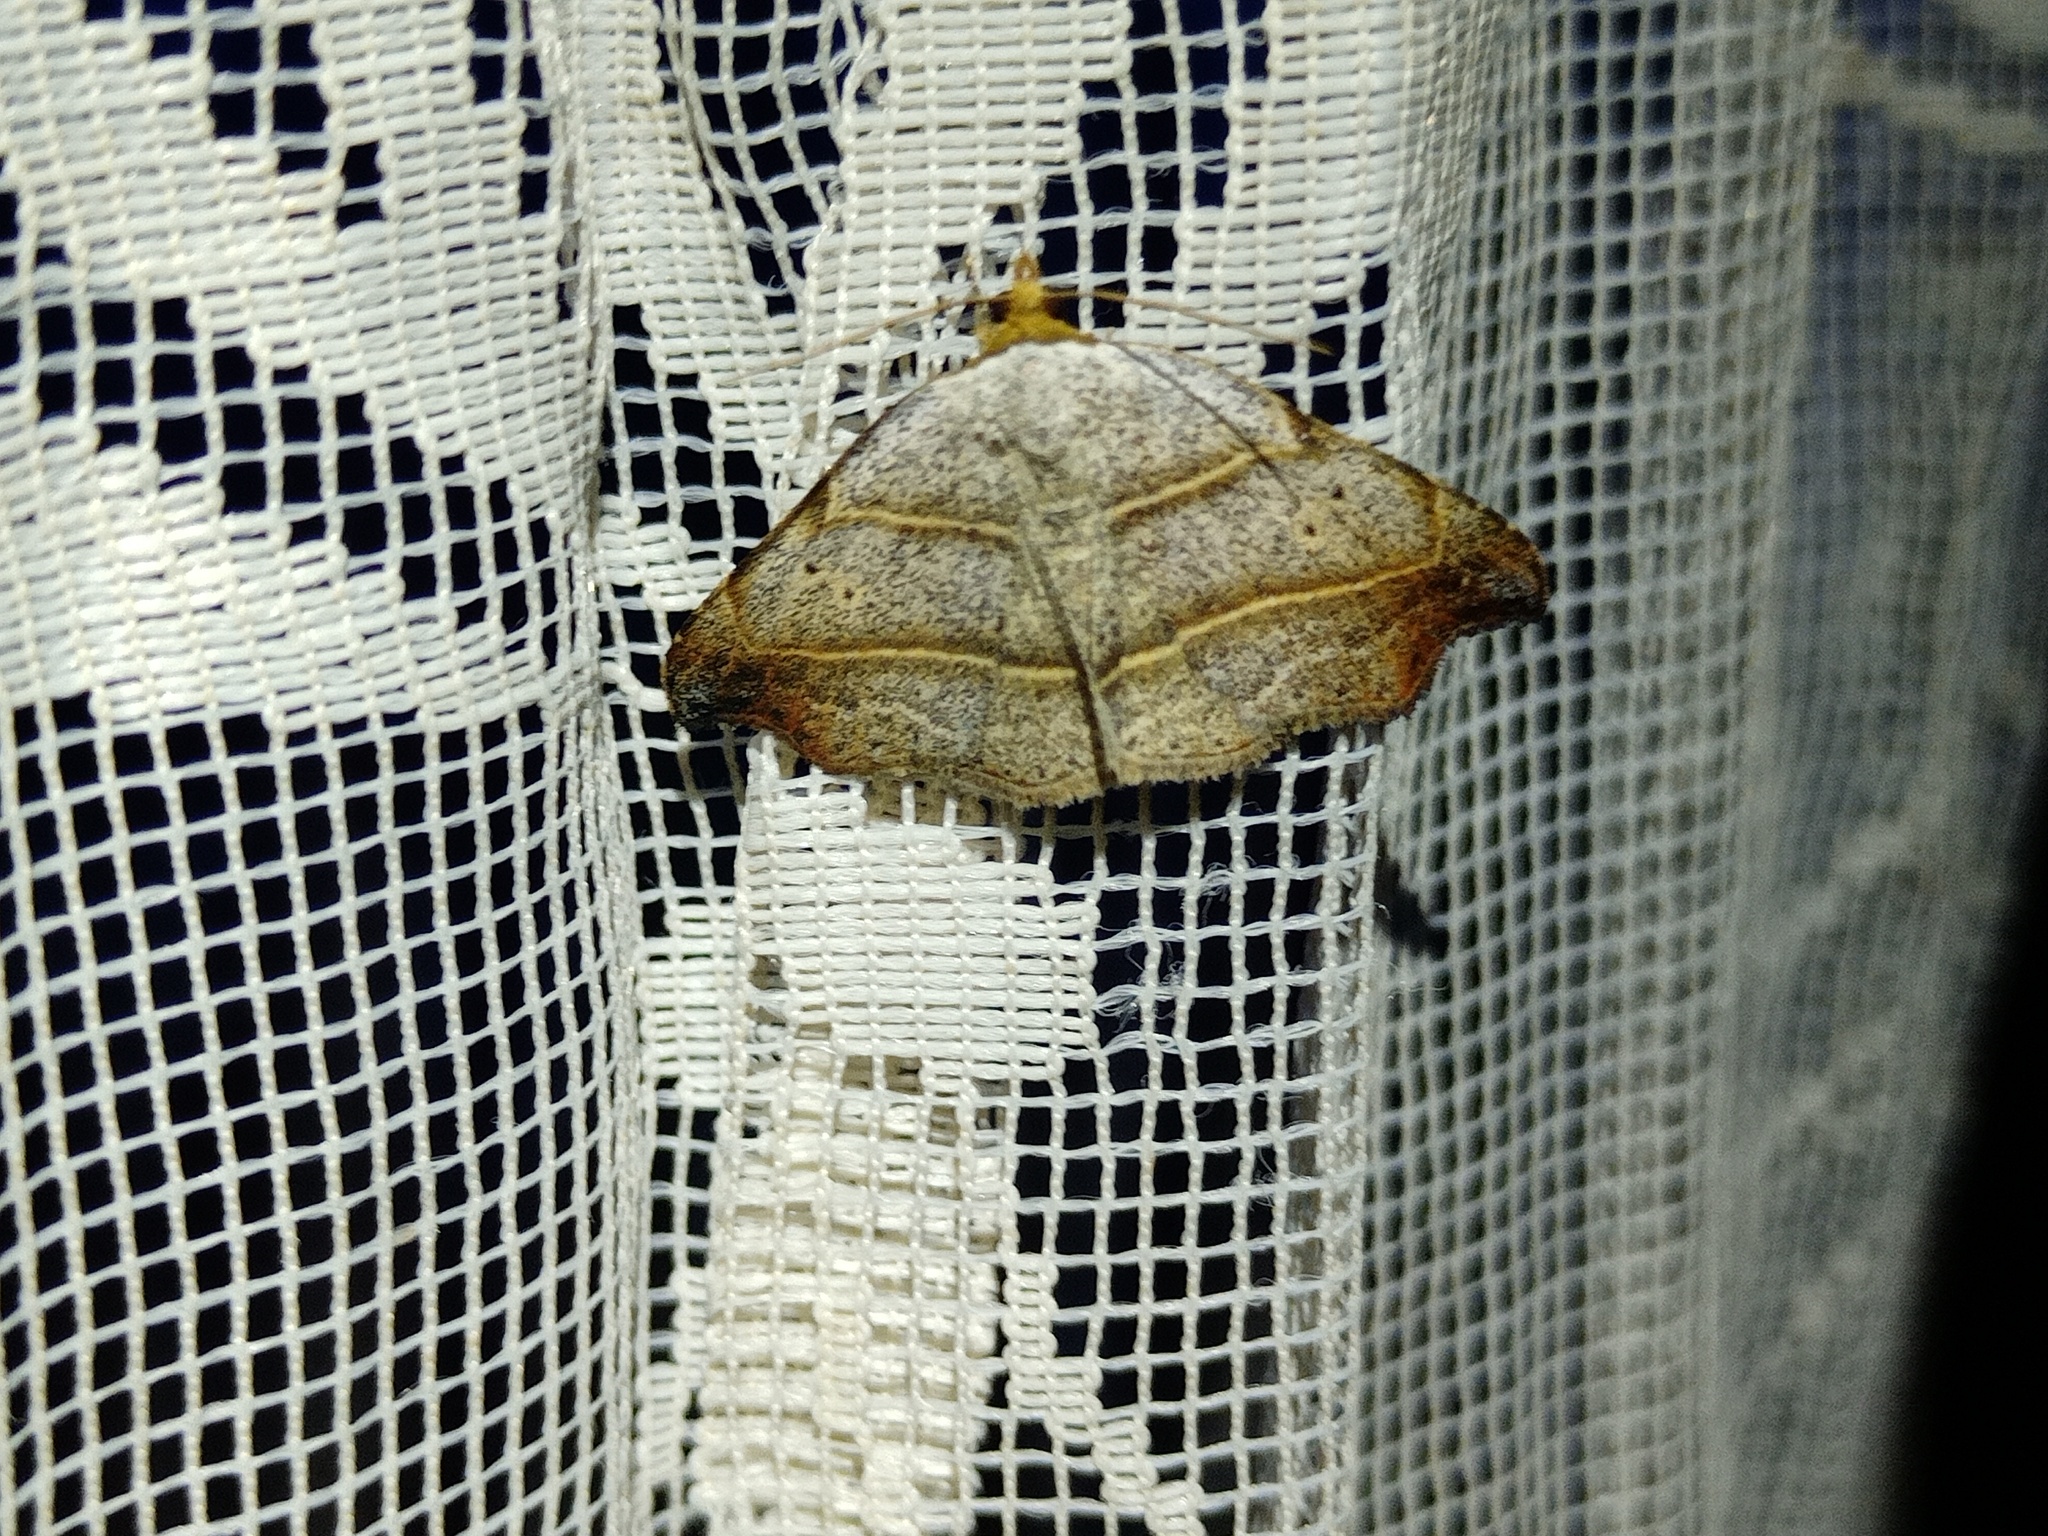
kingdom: Animalia
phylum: Arthropoda
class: Insecta
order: Lepidoptera
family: Erebidae
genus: Laspeyria
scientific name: Laspeyria flexula
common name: Beautiful hook-tip
